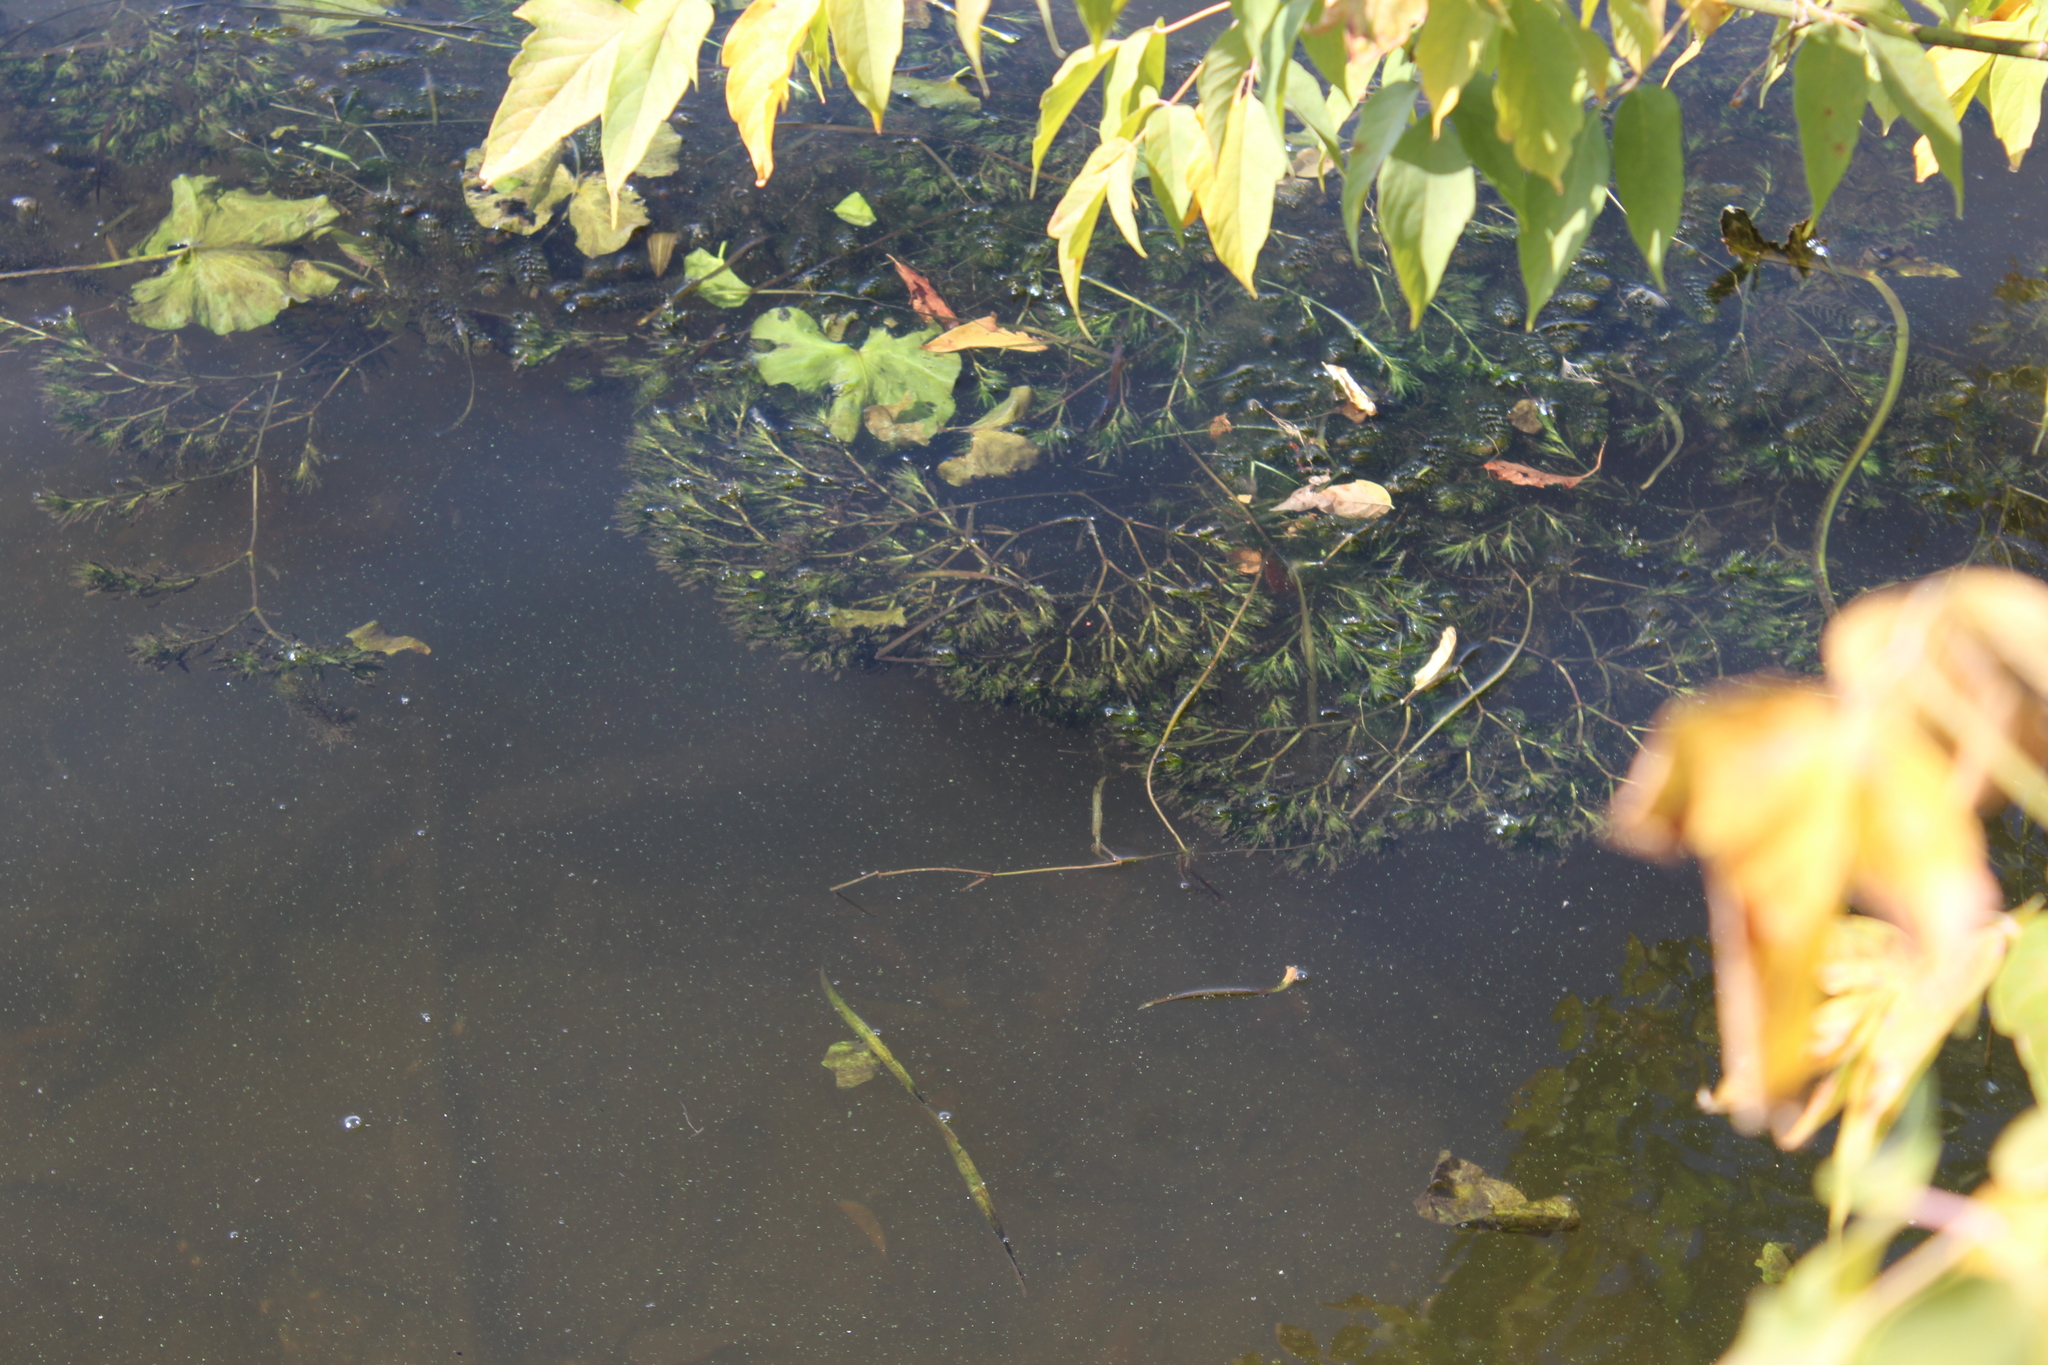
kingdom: Plantae
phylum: Tracheophyta
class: Liliopsida
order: Alismatales
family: Hydrocharitaceae
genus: Najas
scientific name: Najas marina
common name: Holly-leaved naiad
